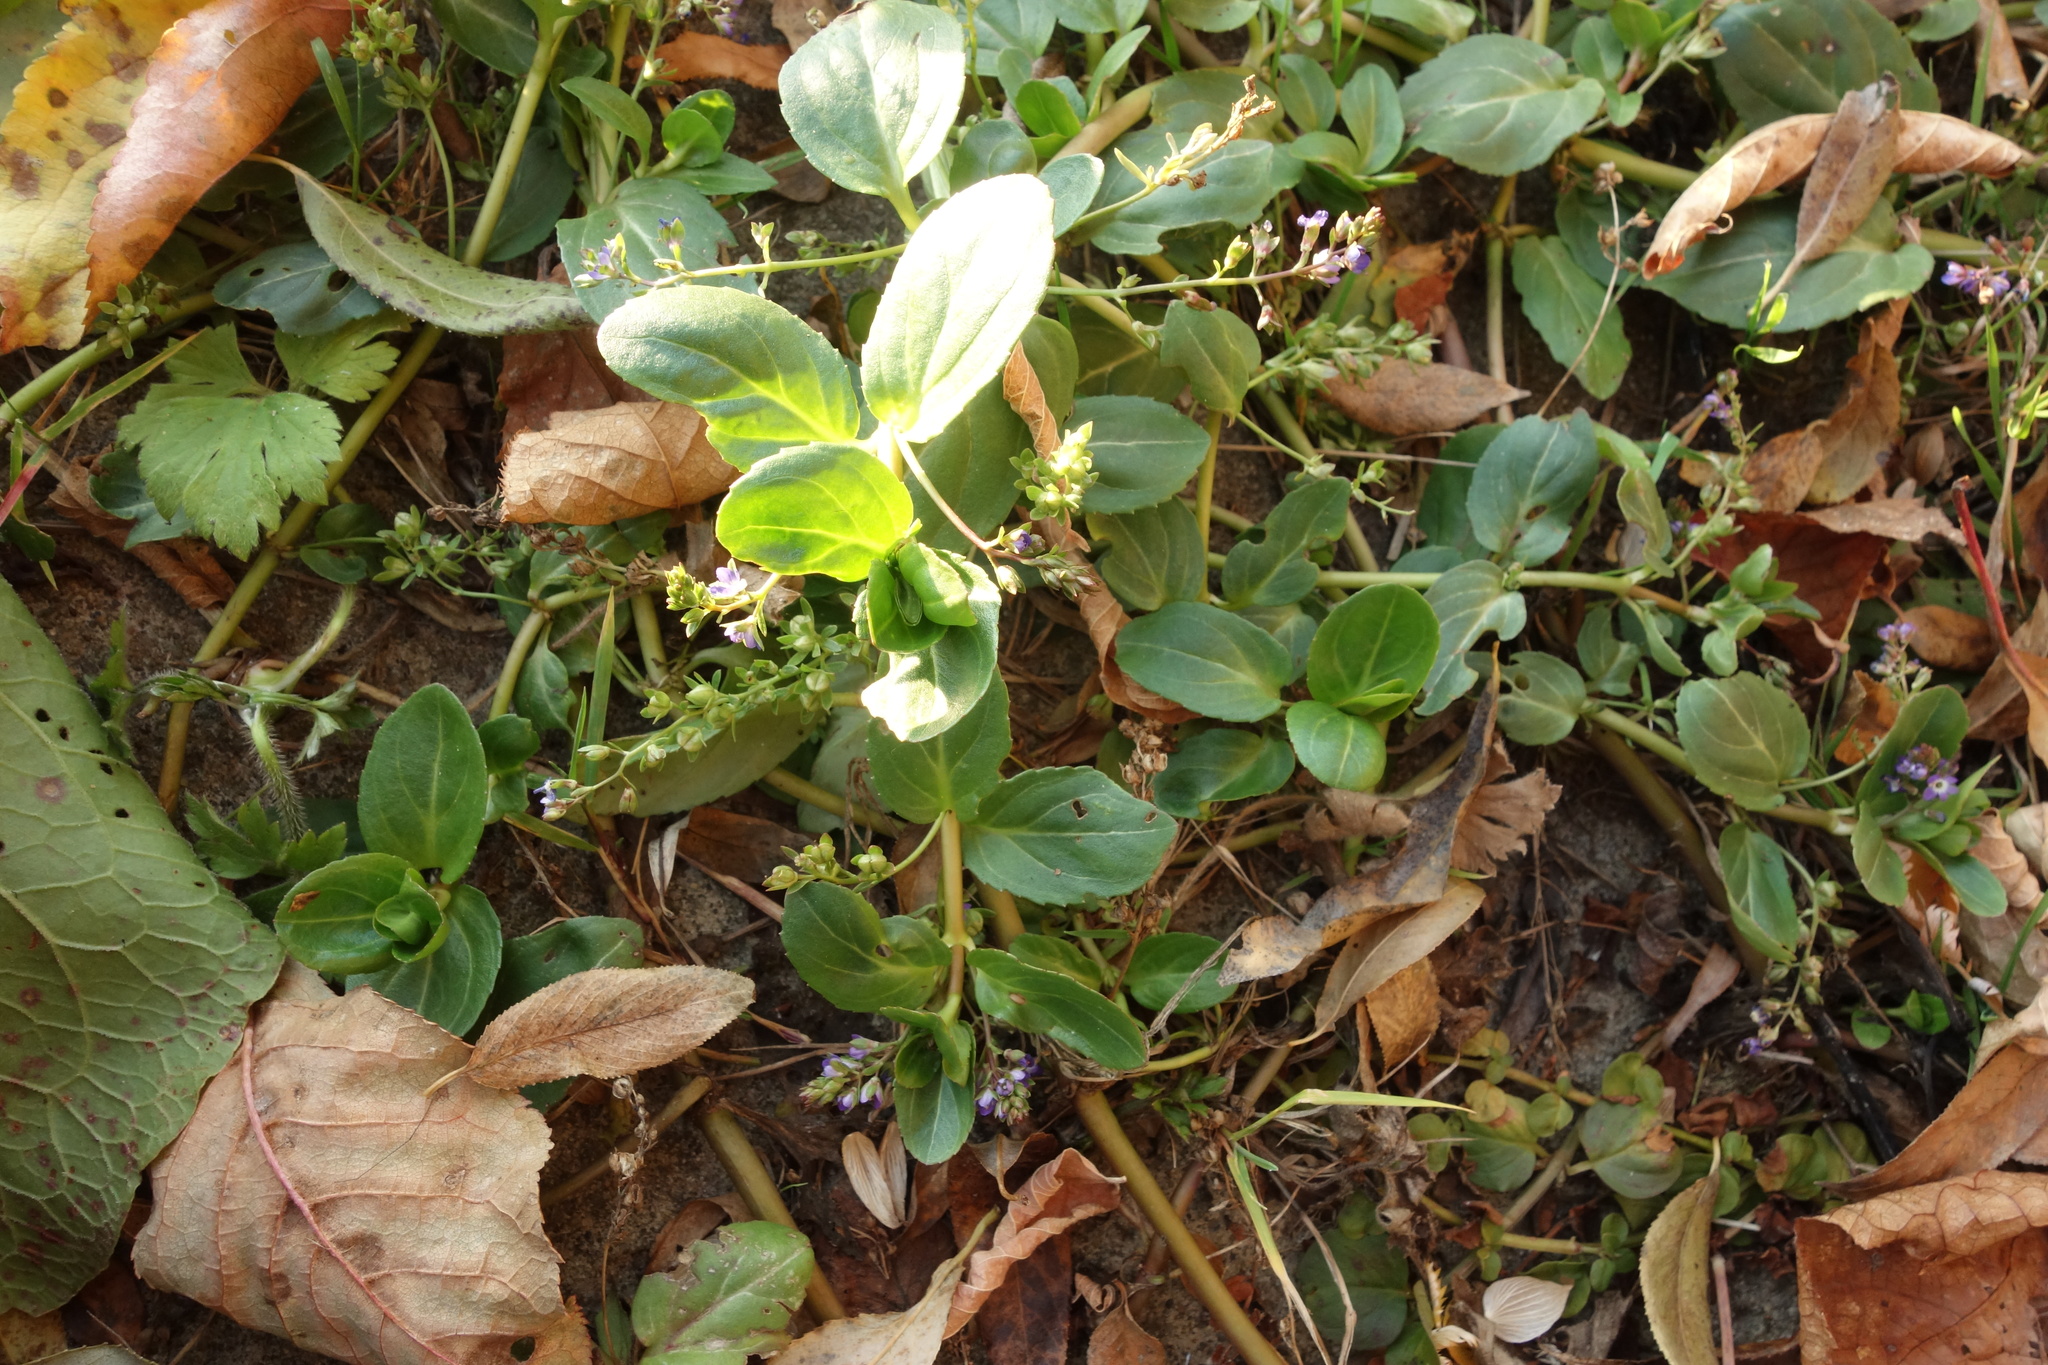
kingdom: Plantae
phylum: Tracheophyta
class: Magnoliopsida
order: Lamiales
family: Plantaginaceae
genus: Veronica
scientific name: Veronica beccabunga
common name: Brooklime
